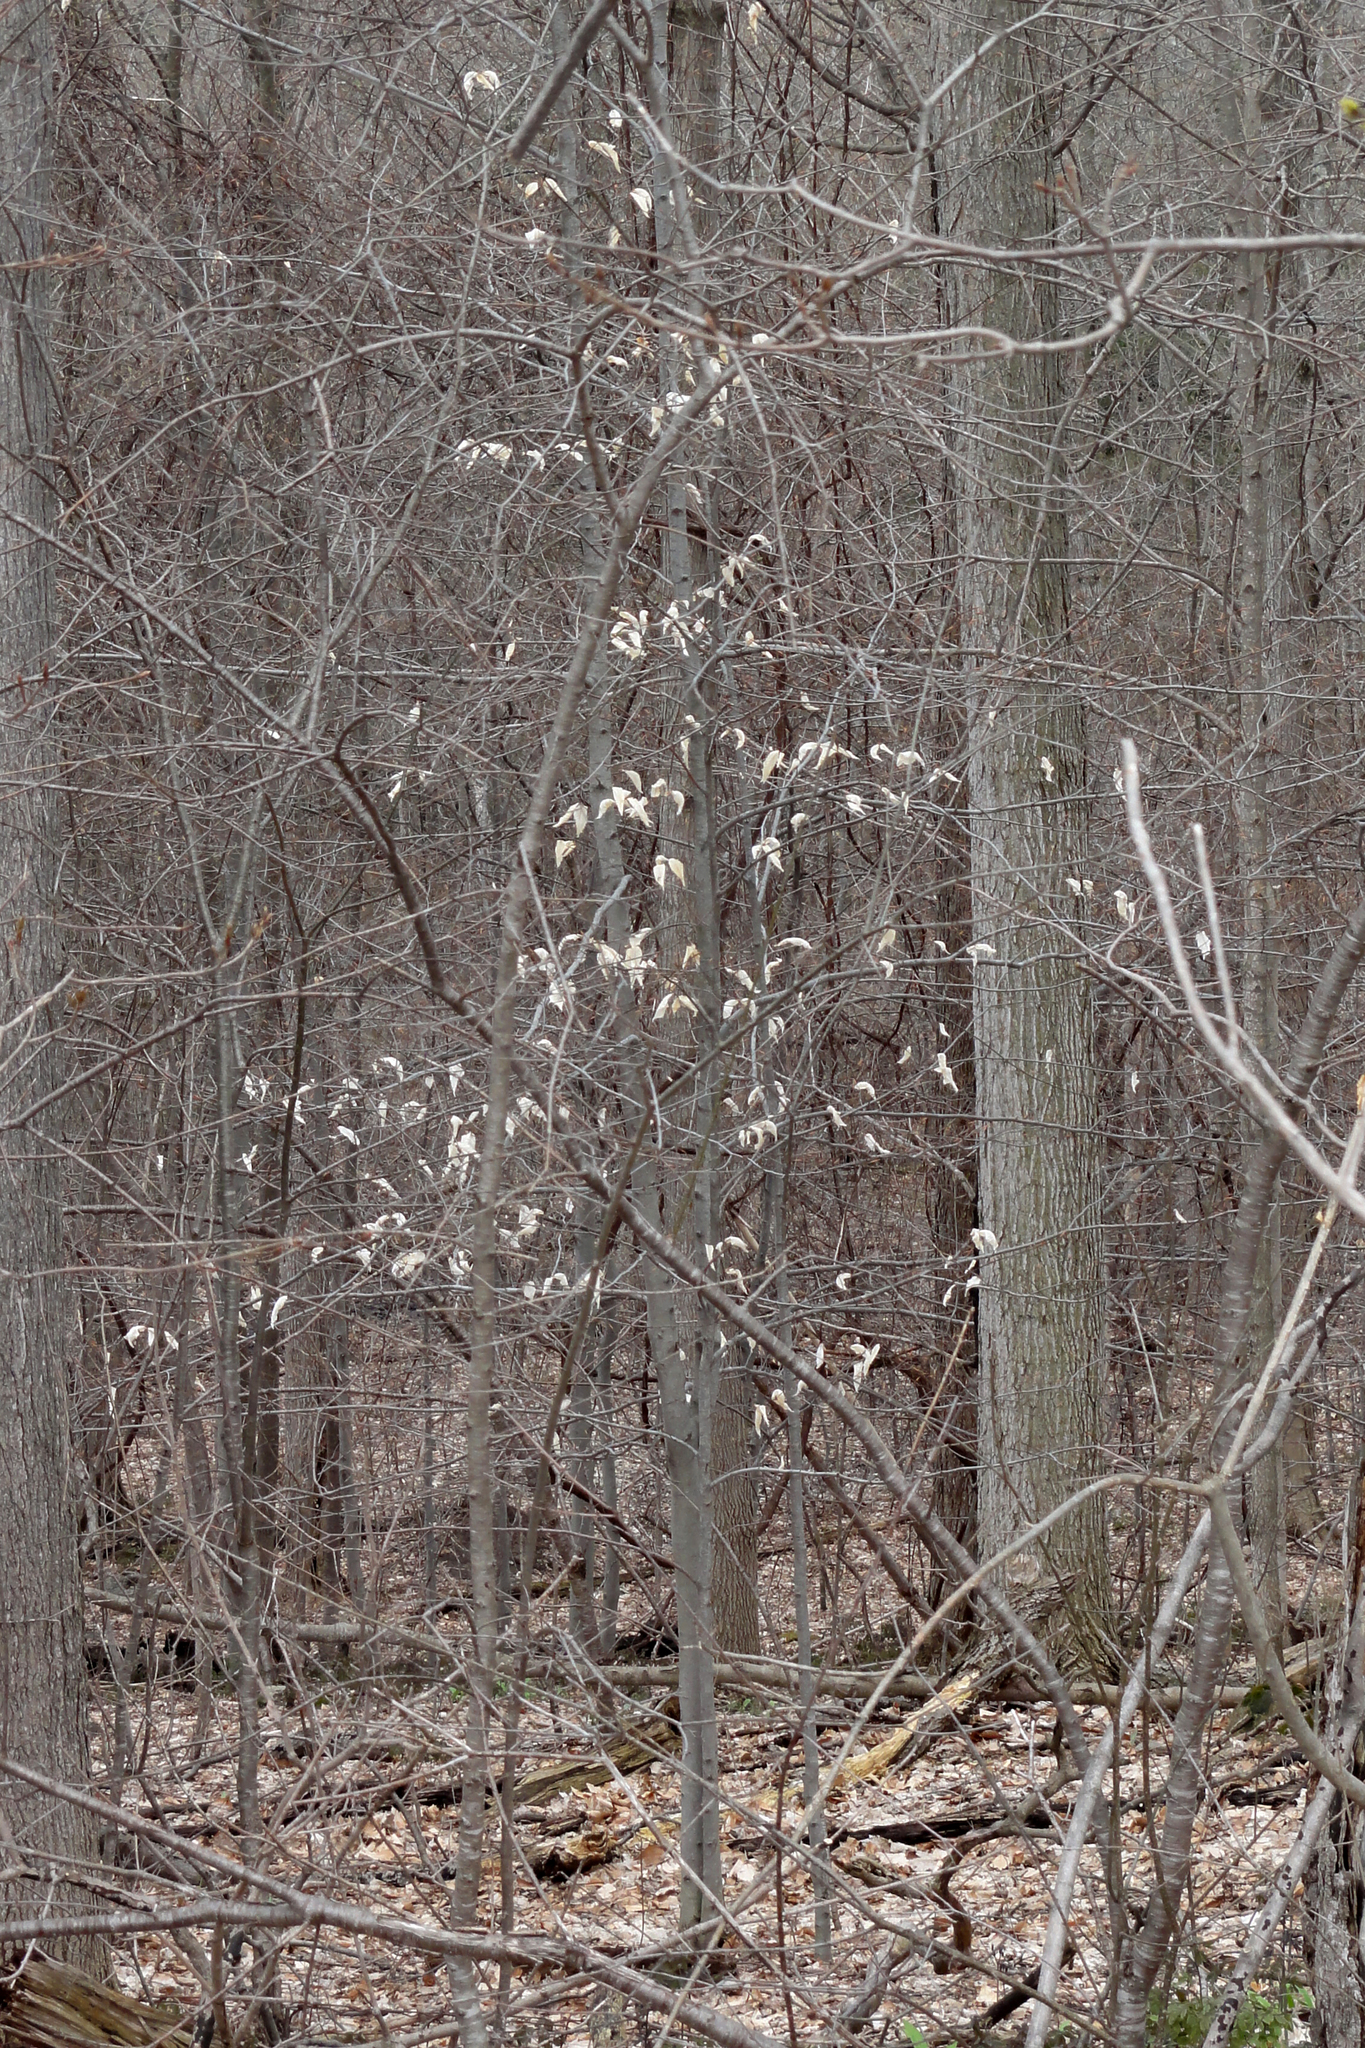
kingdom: Plantae
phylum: Tracheophyta
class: Magnoliopsida
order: Fagales
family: Fagaceae
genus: Fagus
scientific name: Fagus grandifolia
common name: American beech
